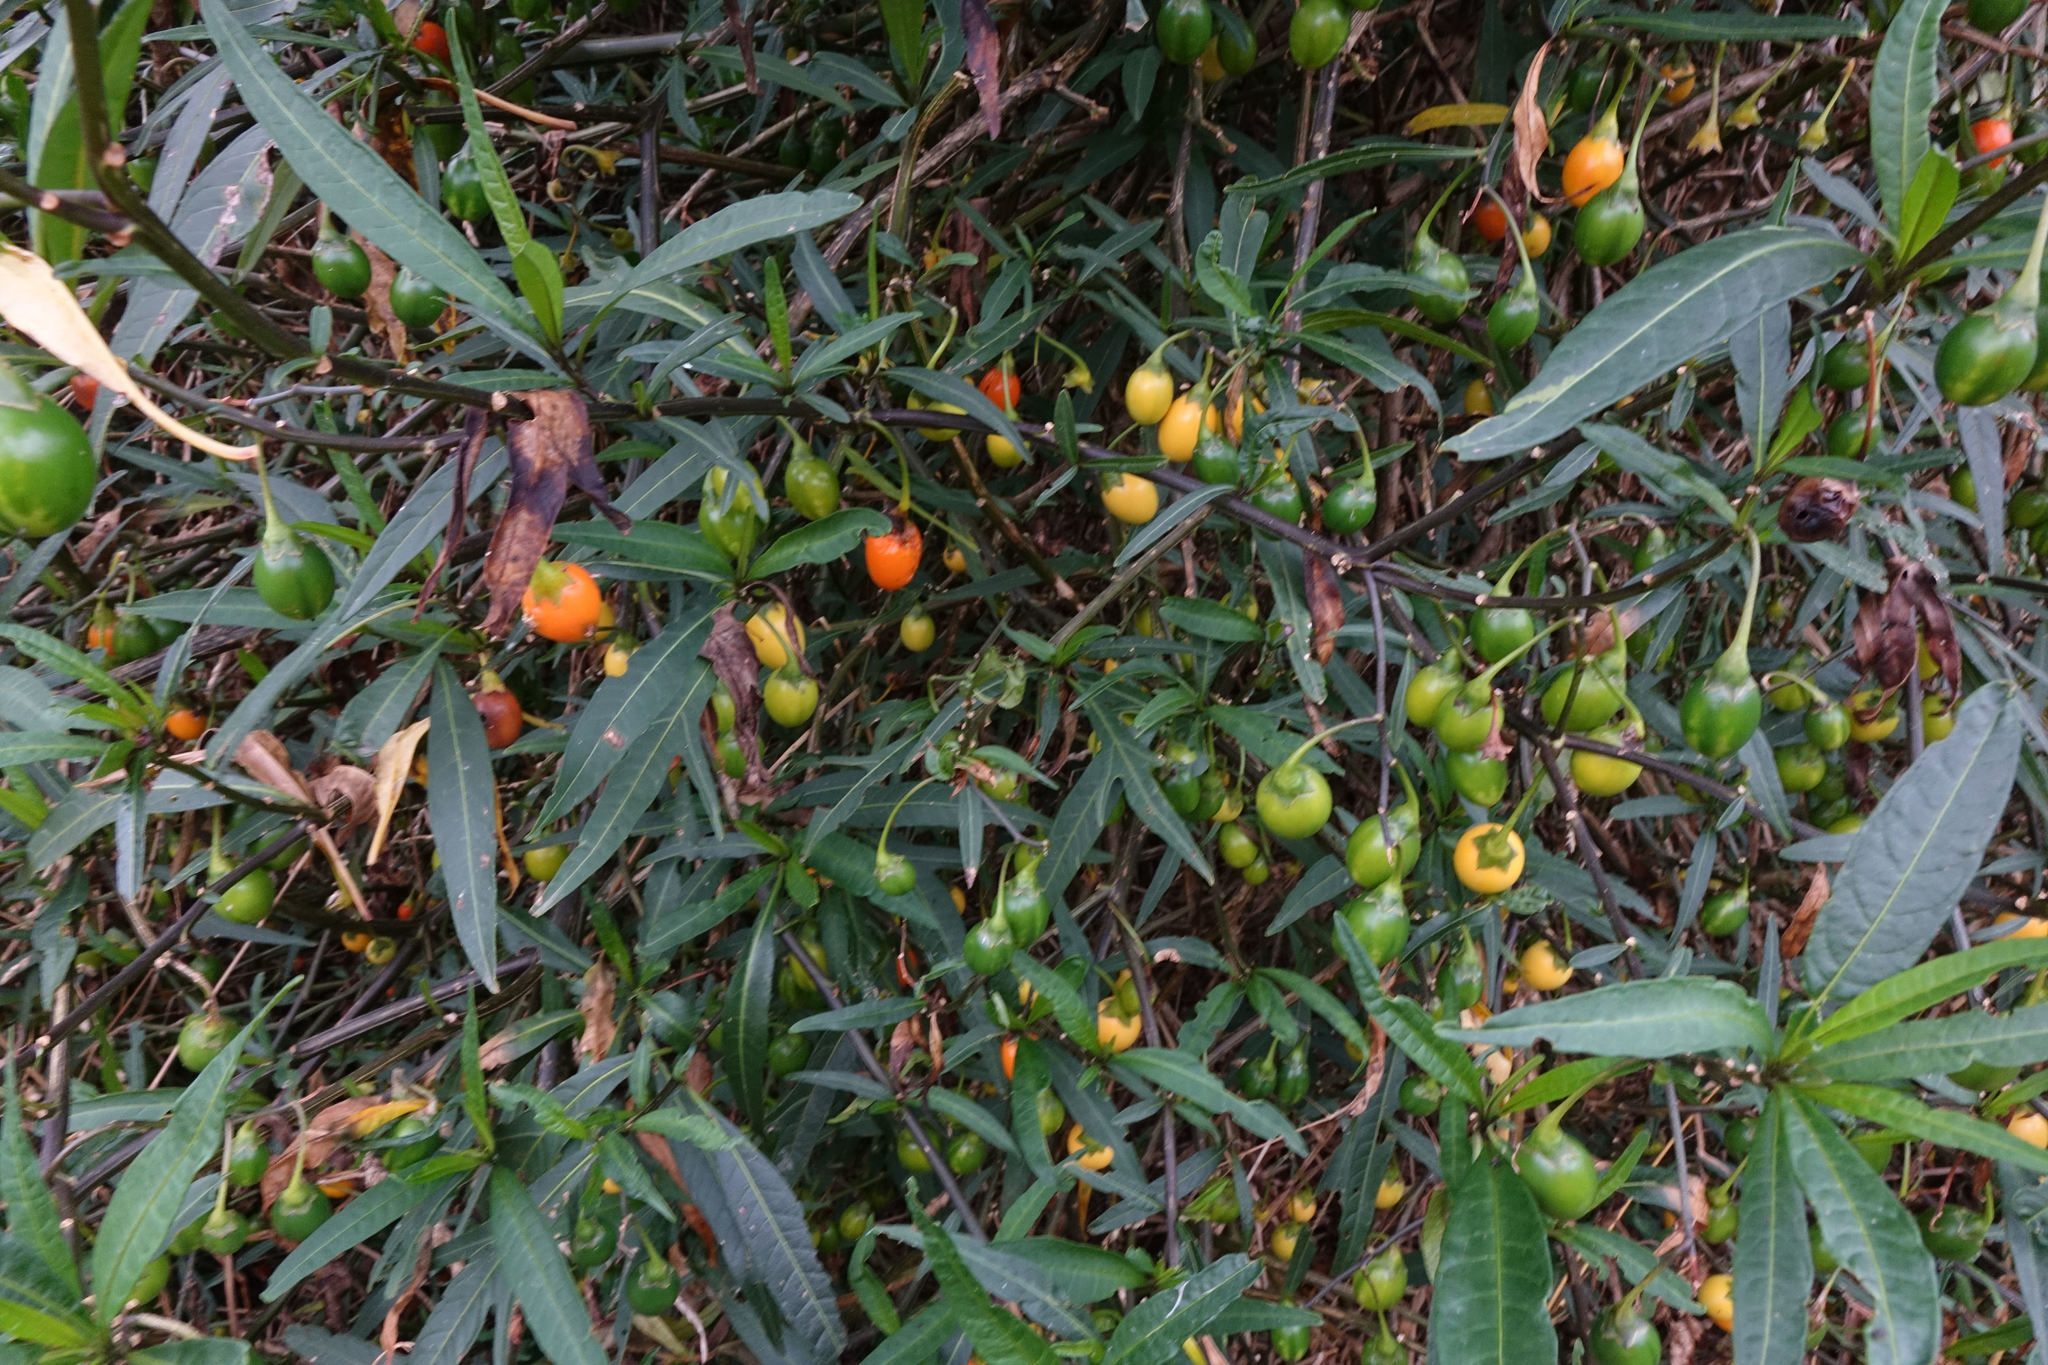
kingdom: Plantae
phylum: Tracheophyta
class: Magnoliopsida
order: Solanales
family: Solanaceae
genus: Solanum
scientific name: Solanum laciniatum
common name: Kangaroo-apple
